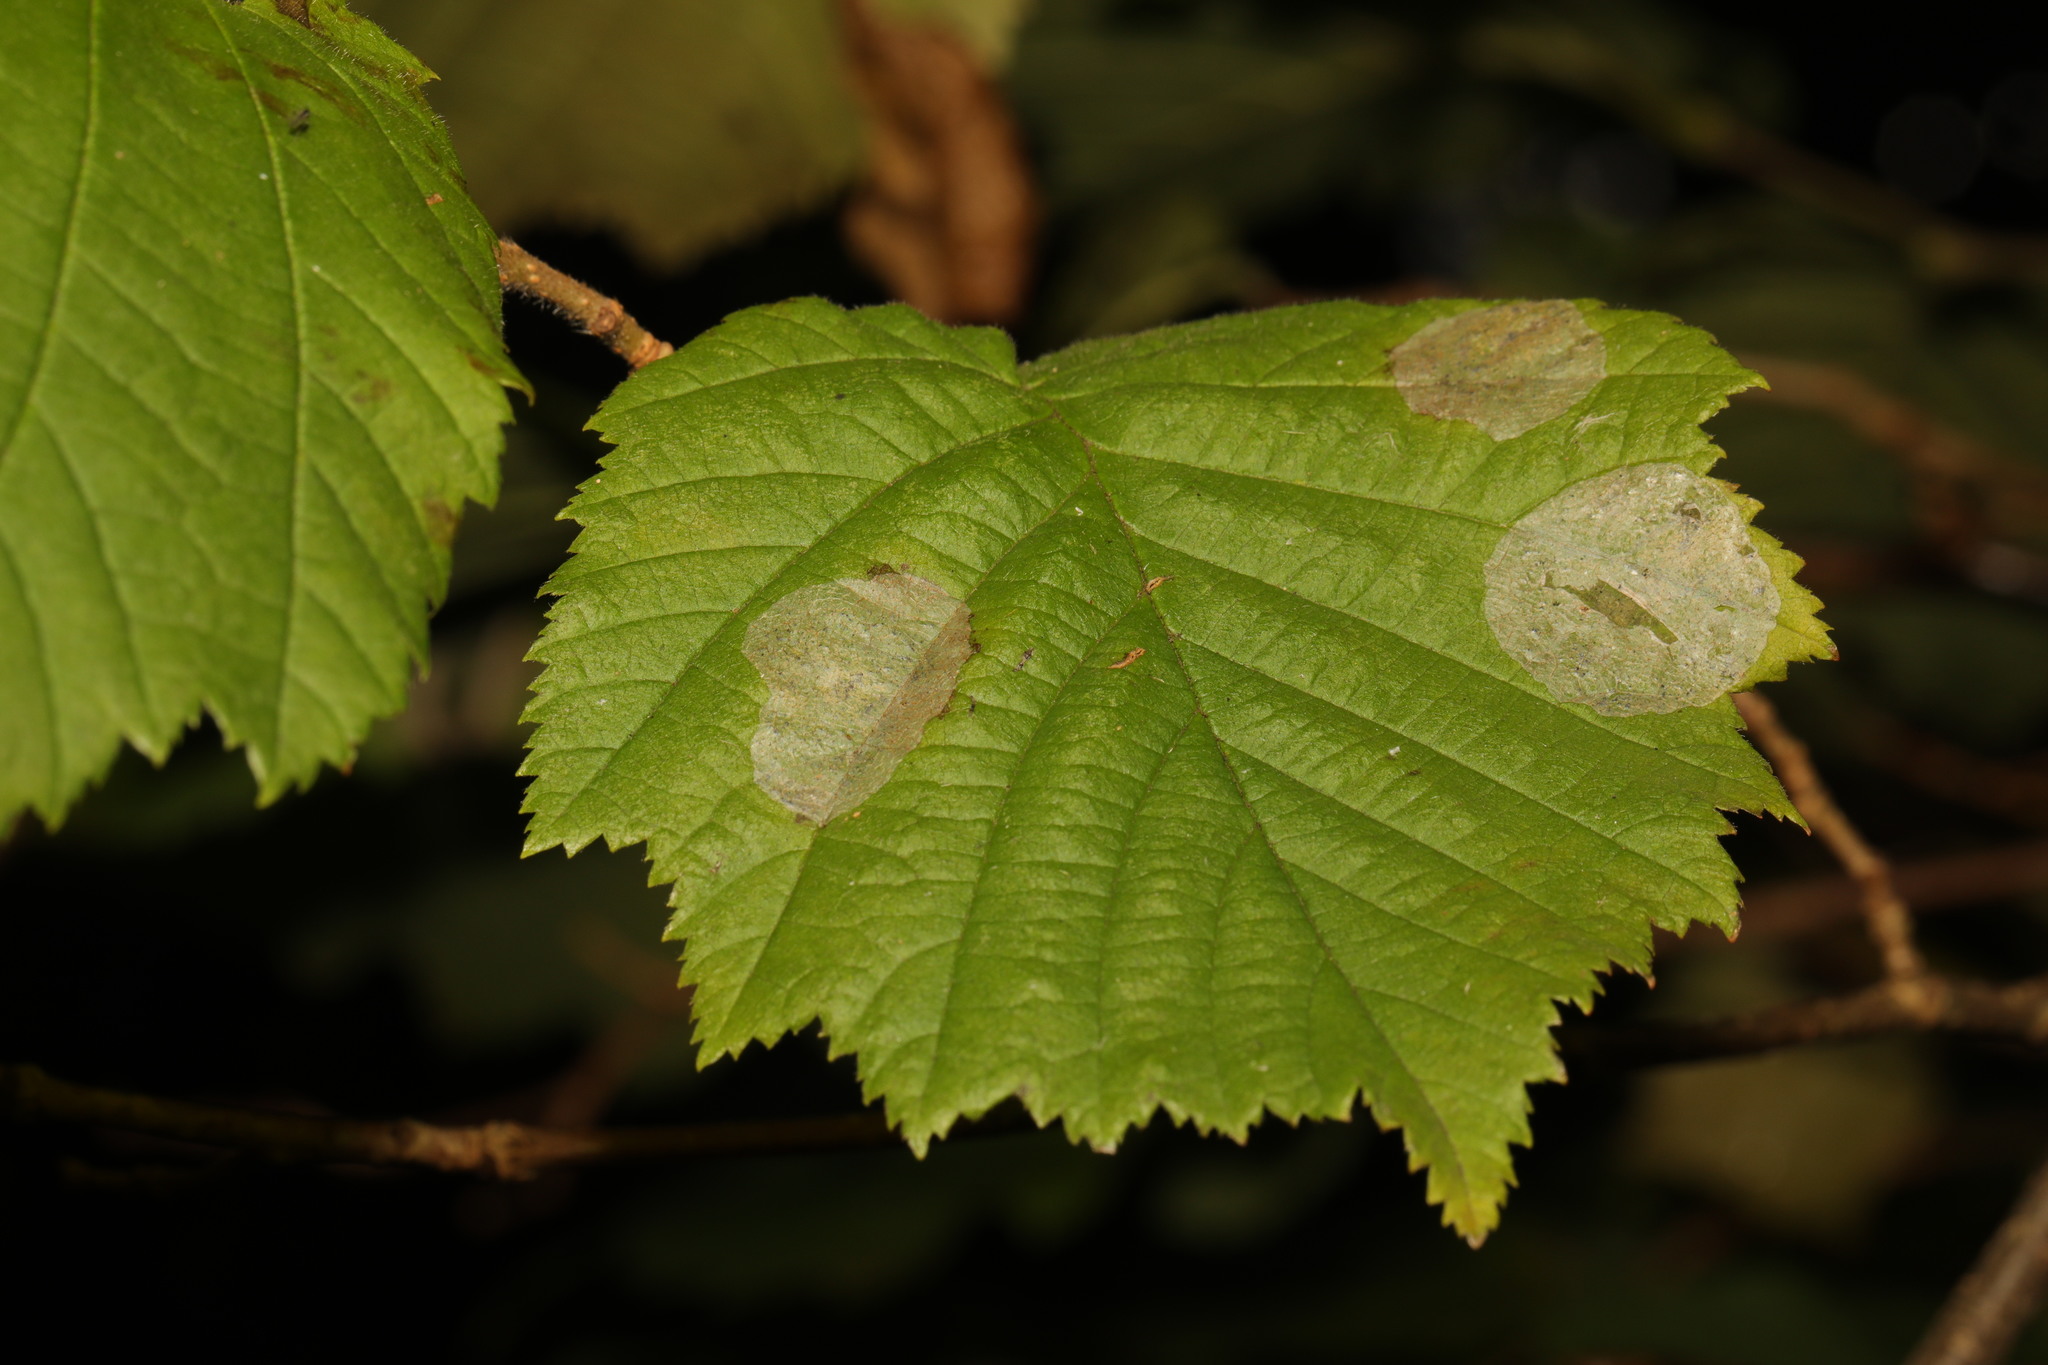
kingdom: Animalia
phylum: Arthropoda
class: Insecta
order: Lepidoptera
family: Gracillariidae
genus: Phyllonorycter
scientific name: Phyllonorycter coryli
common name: Nut-leaf blister moth
